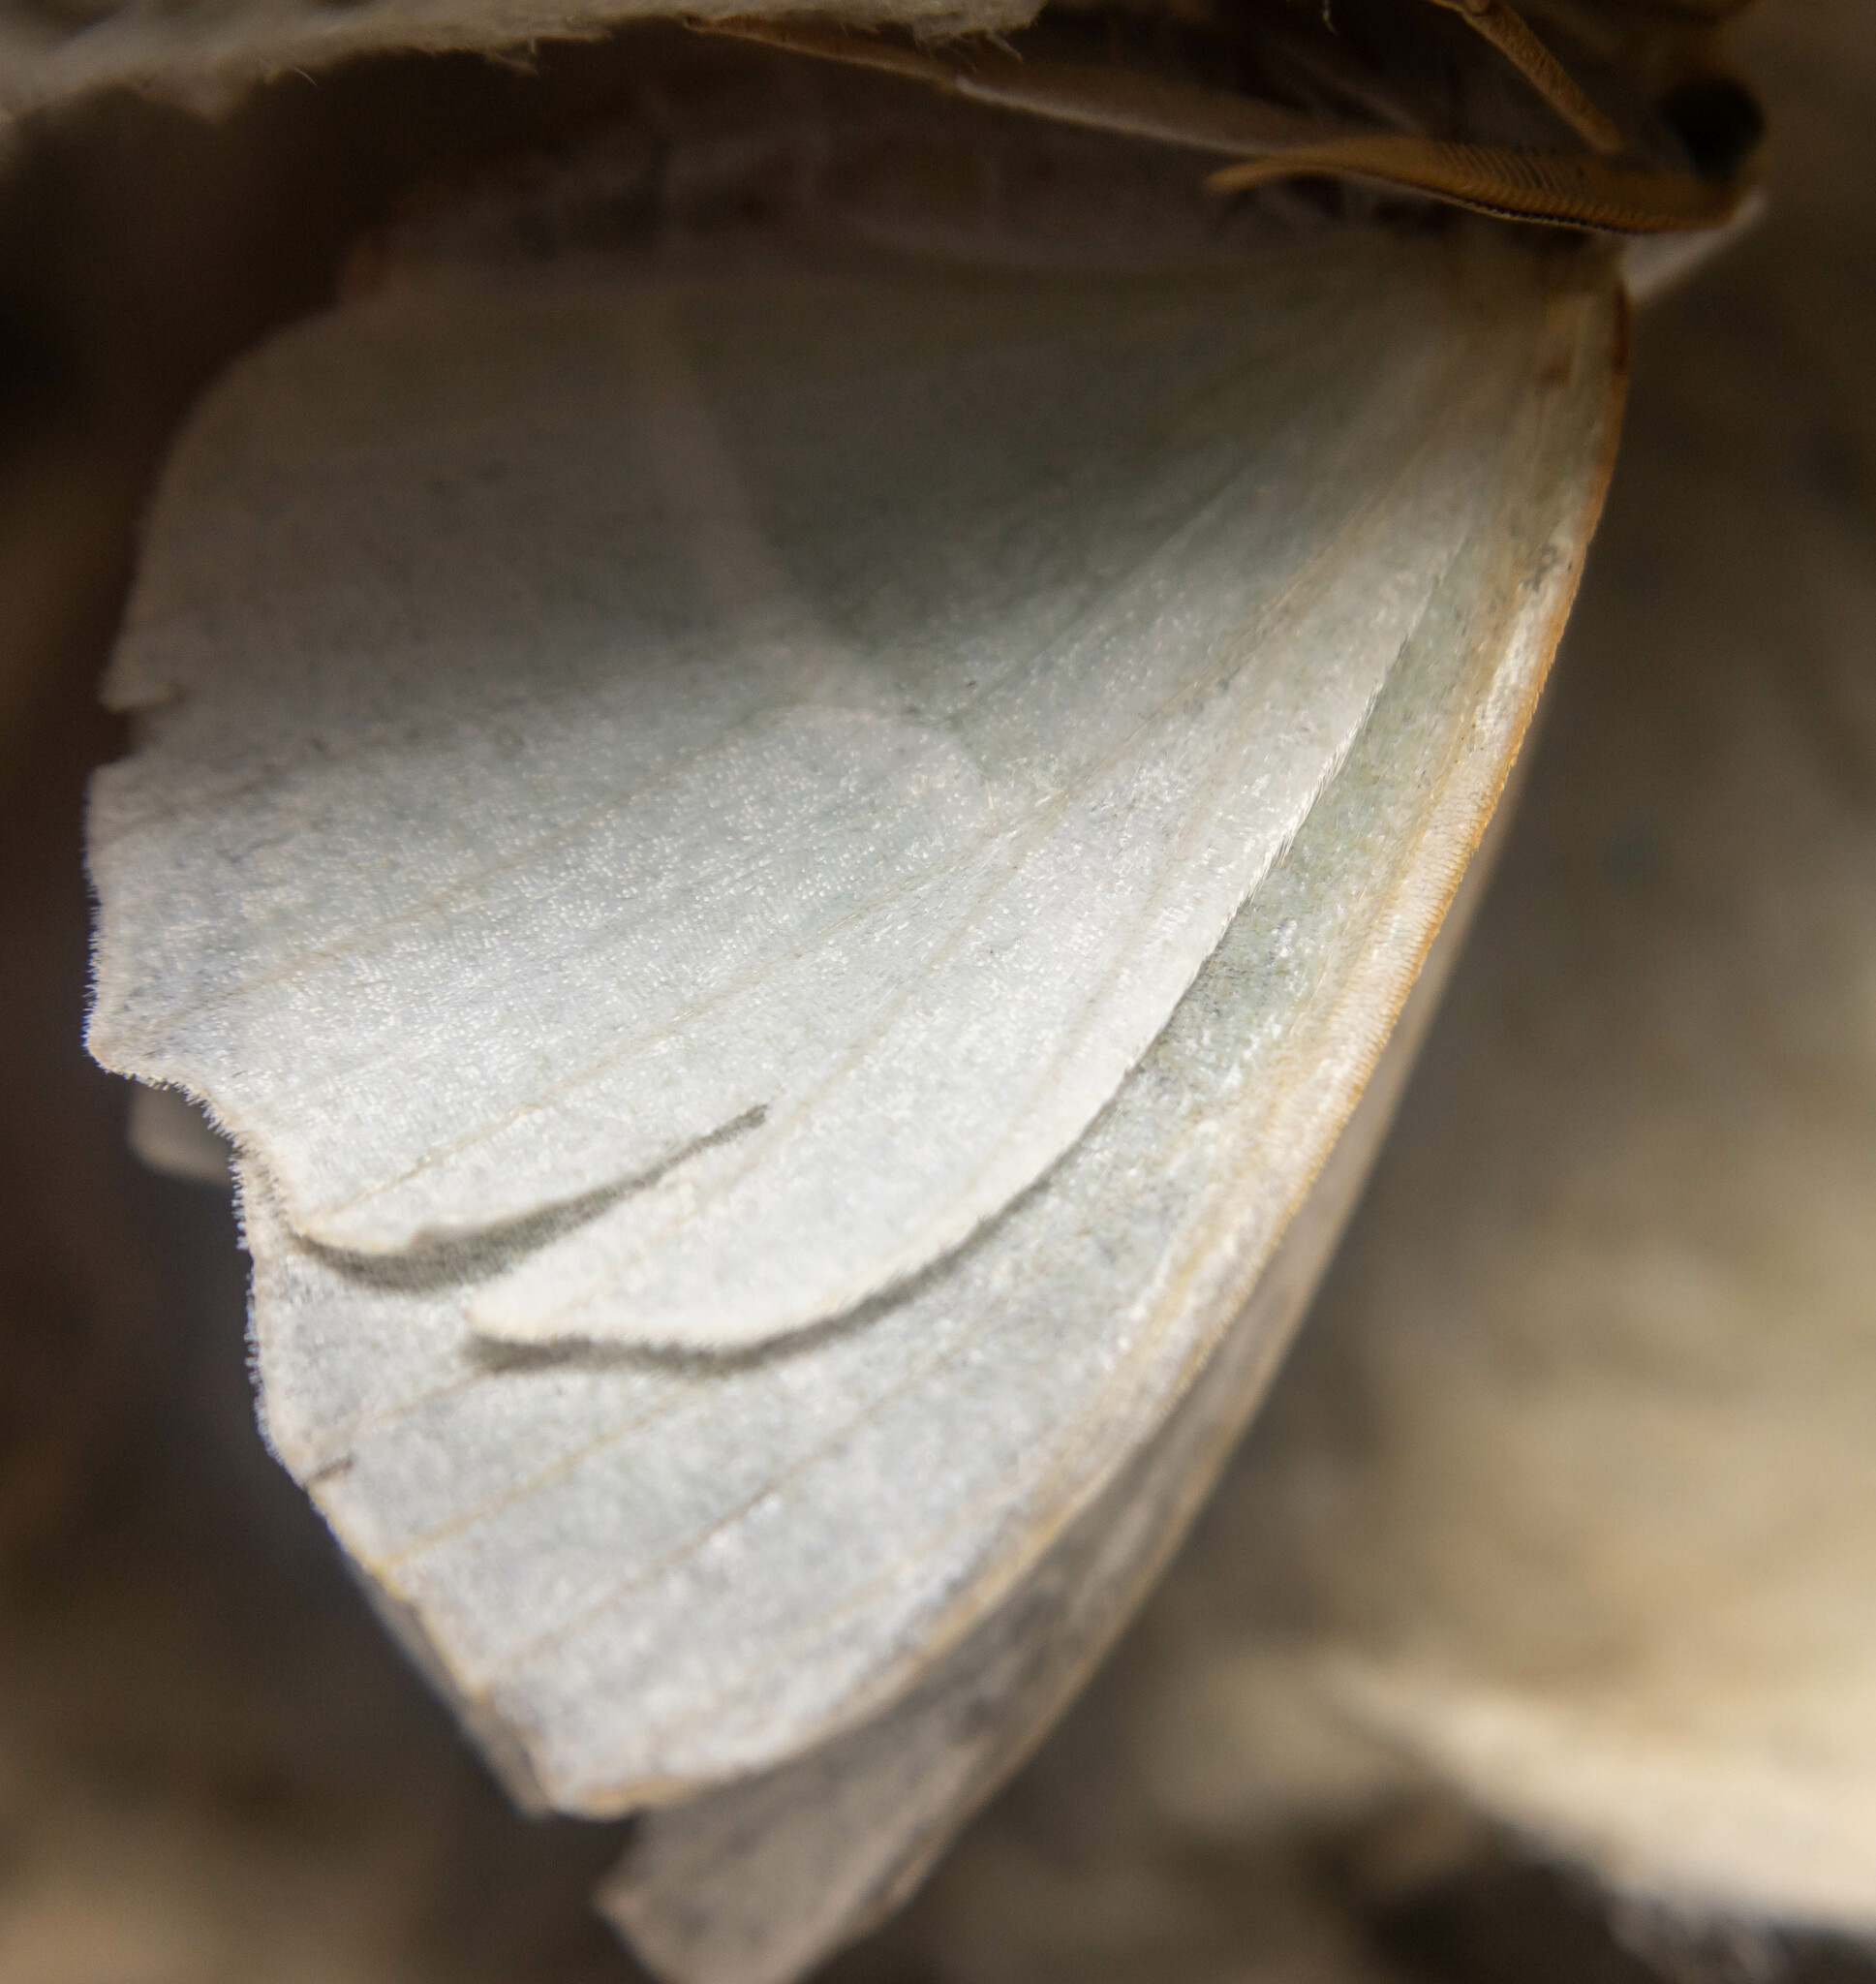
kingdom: Animalia
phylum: Arthropoda
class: Insecta
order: Lepidoptera
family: Geometridae
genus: Campaea
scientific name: Campaea margaritaria
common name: Light emerald
